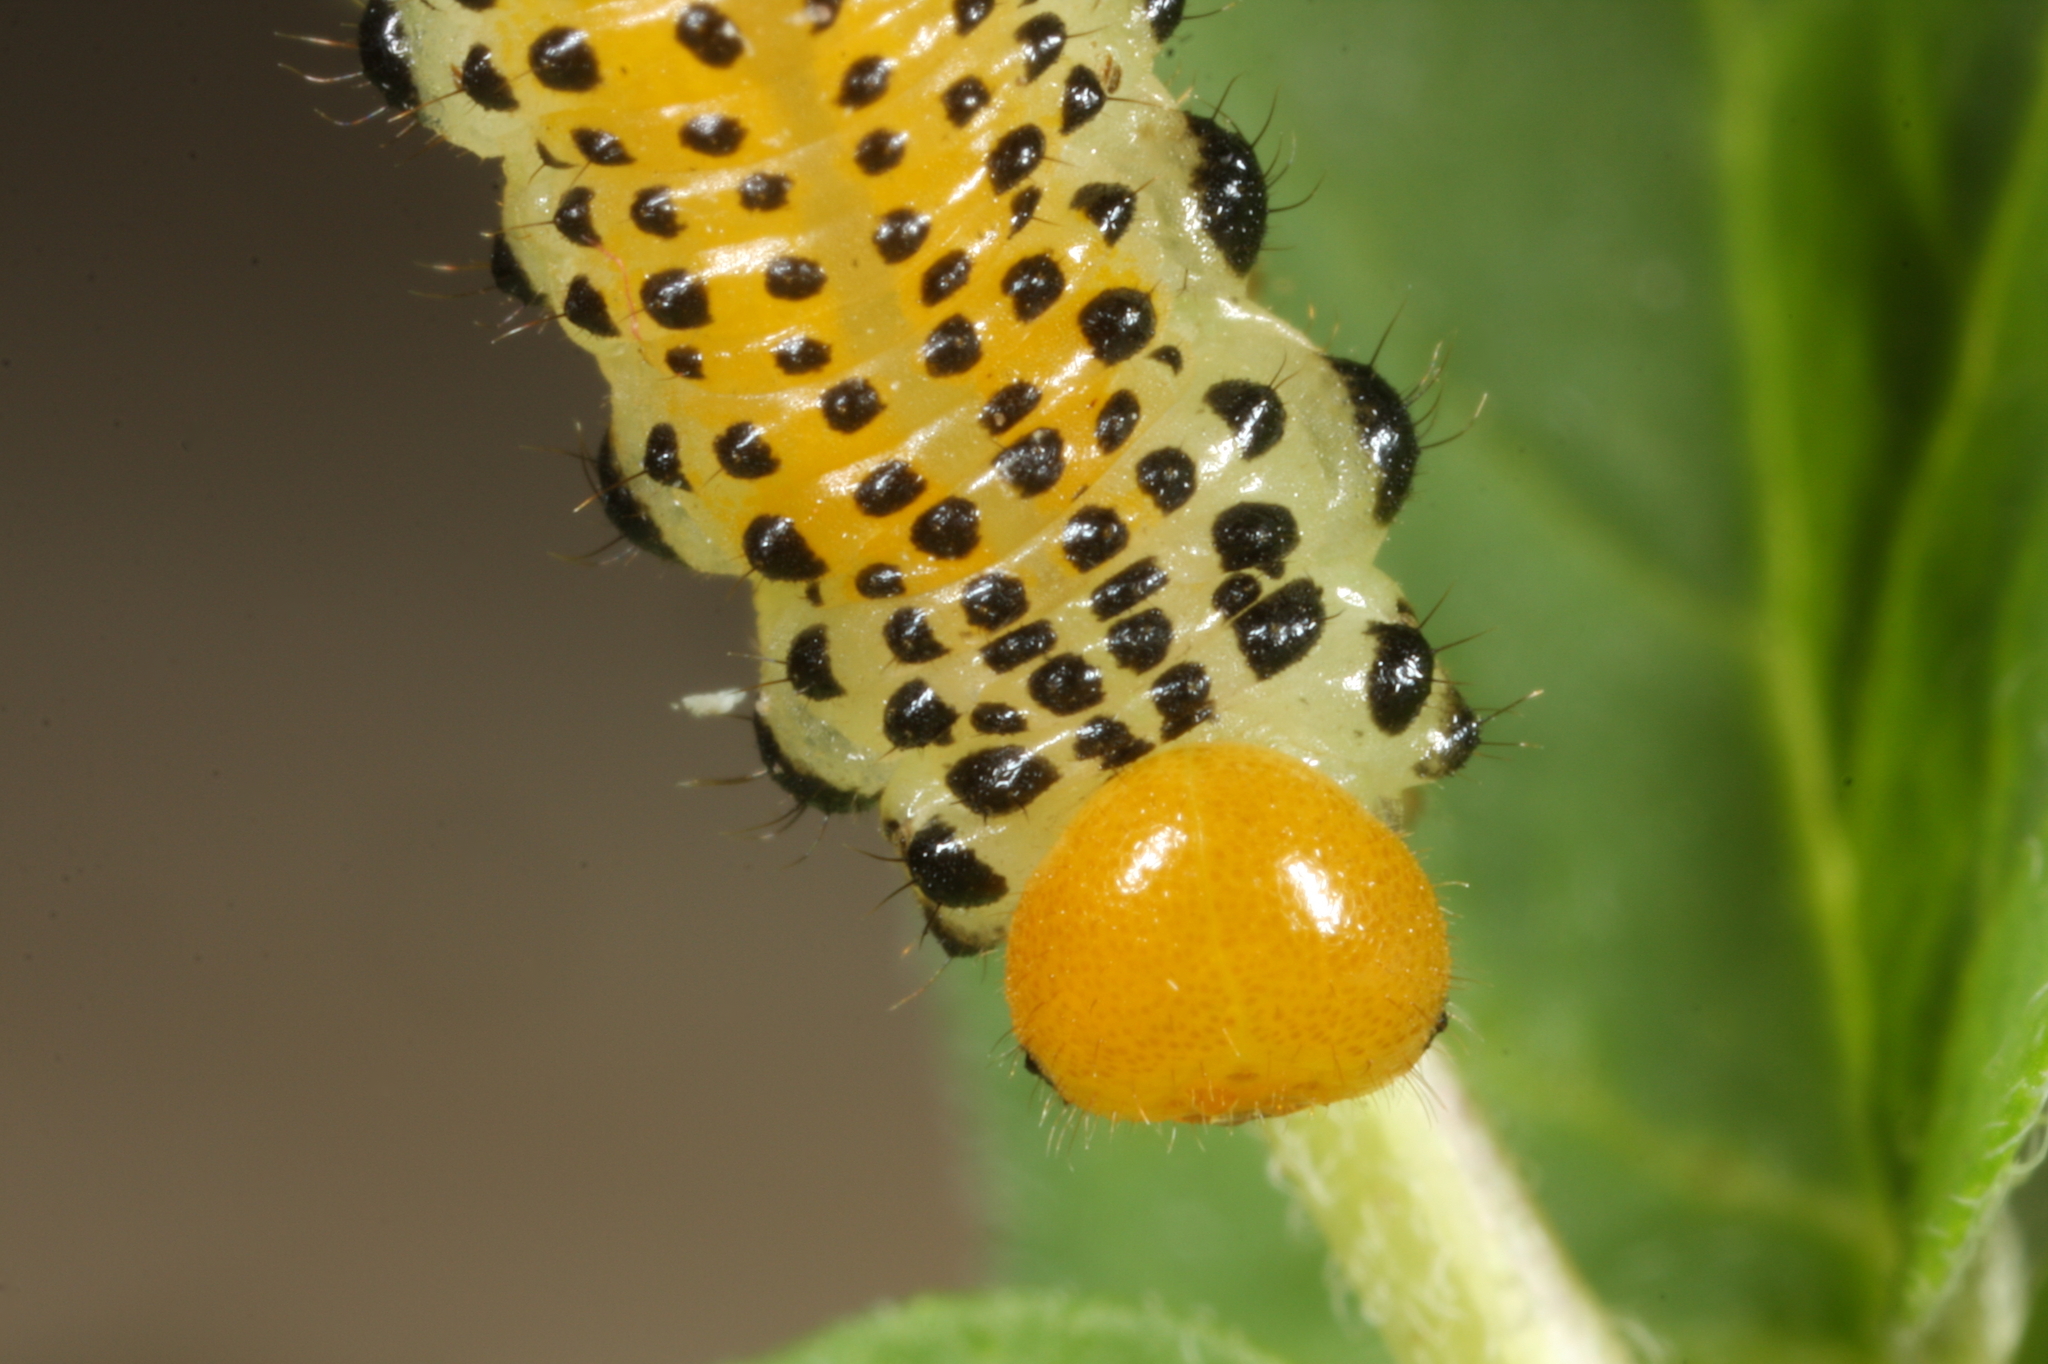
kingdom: Animalia
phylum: Arthropoda
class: Insecta
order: Hymenoptera
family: Argidae
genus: Arge
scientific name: Arge pagana
